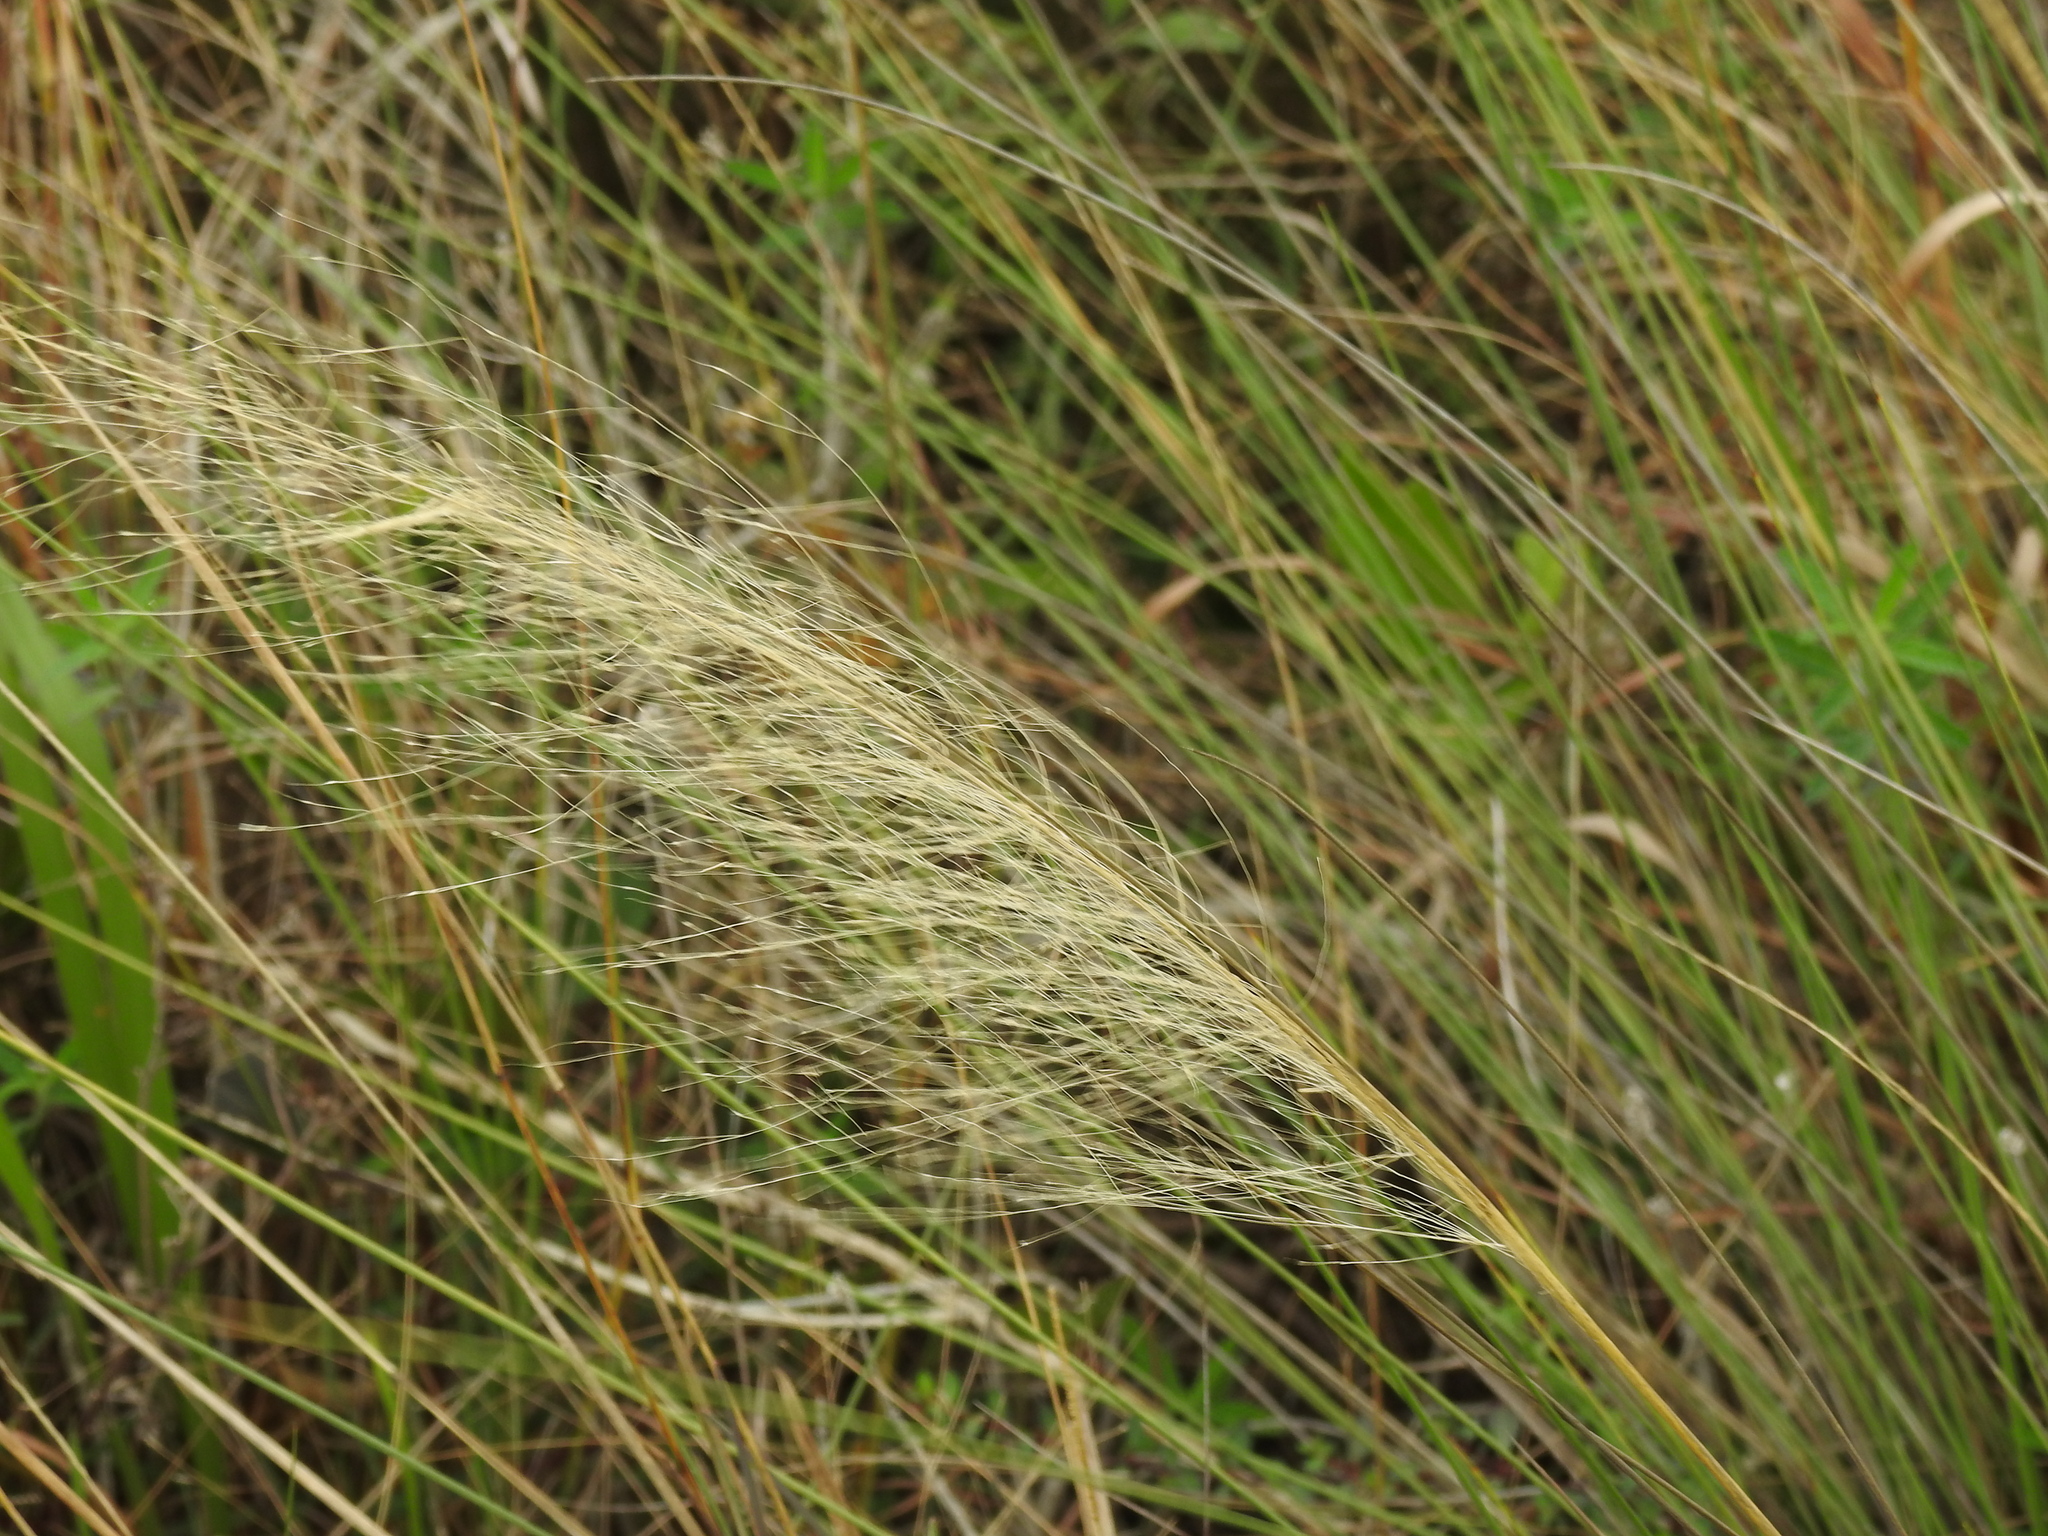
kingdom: Plantae
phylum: Tracheophyta
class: Liliopsida
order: Poales
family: Poaceae
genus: Megathyrsus
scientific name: Megathyrsus maximus
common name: Guineagrass
